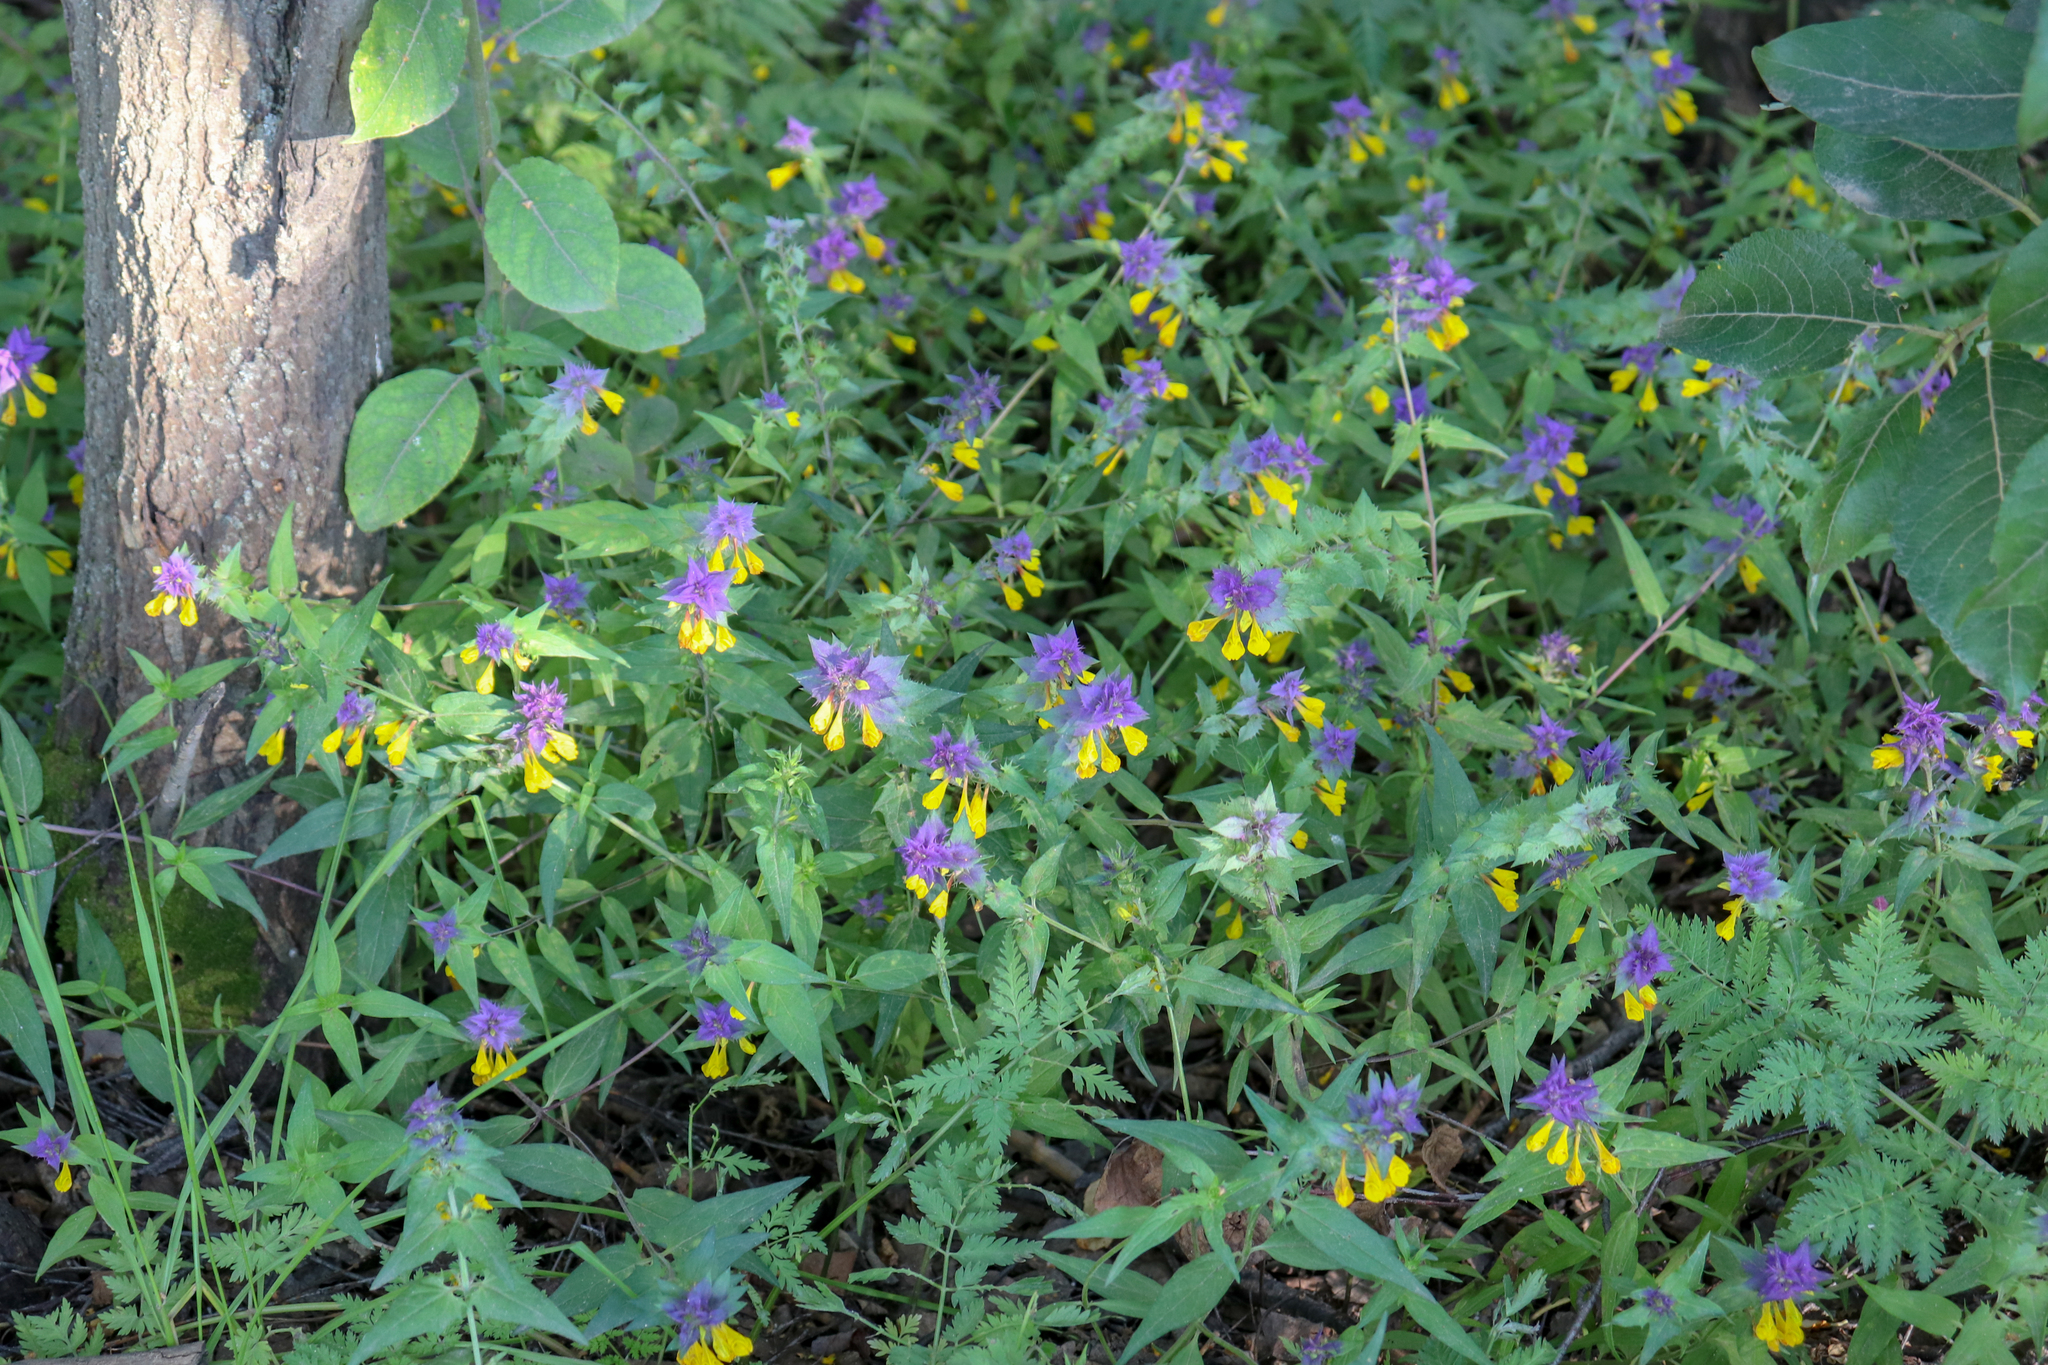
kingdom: Plantae
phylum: Tracheophyta
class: Magnoliopsida
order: Lamiales
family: Orobanchaceae
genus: Melampyrum
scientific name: Melampyrum nemorosum
